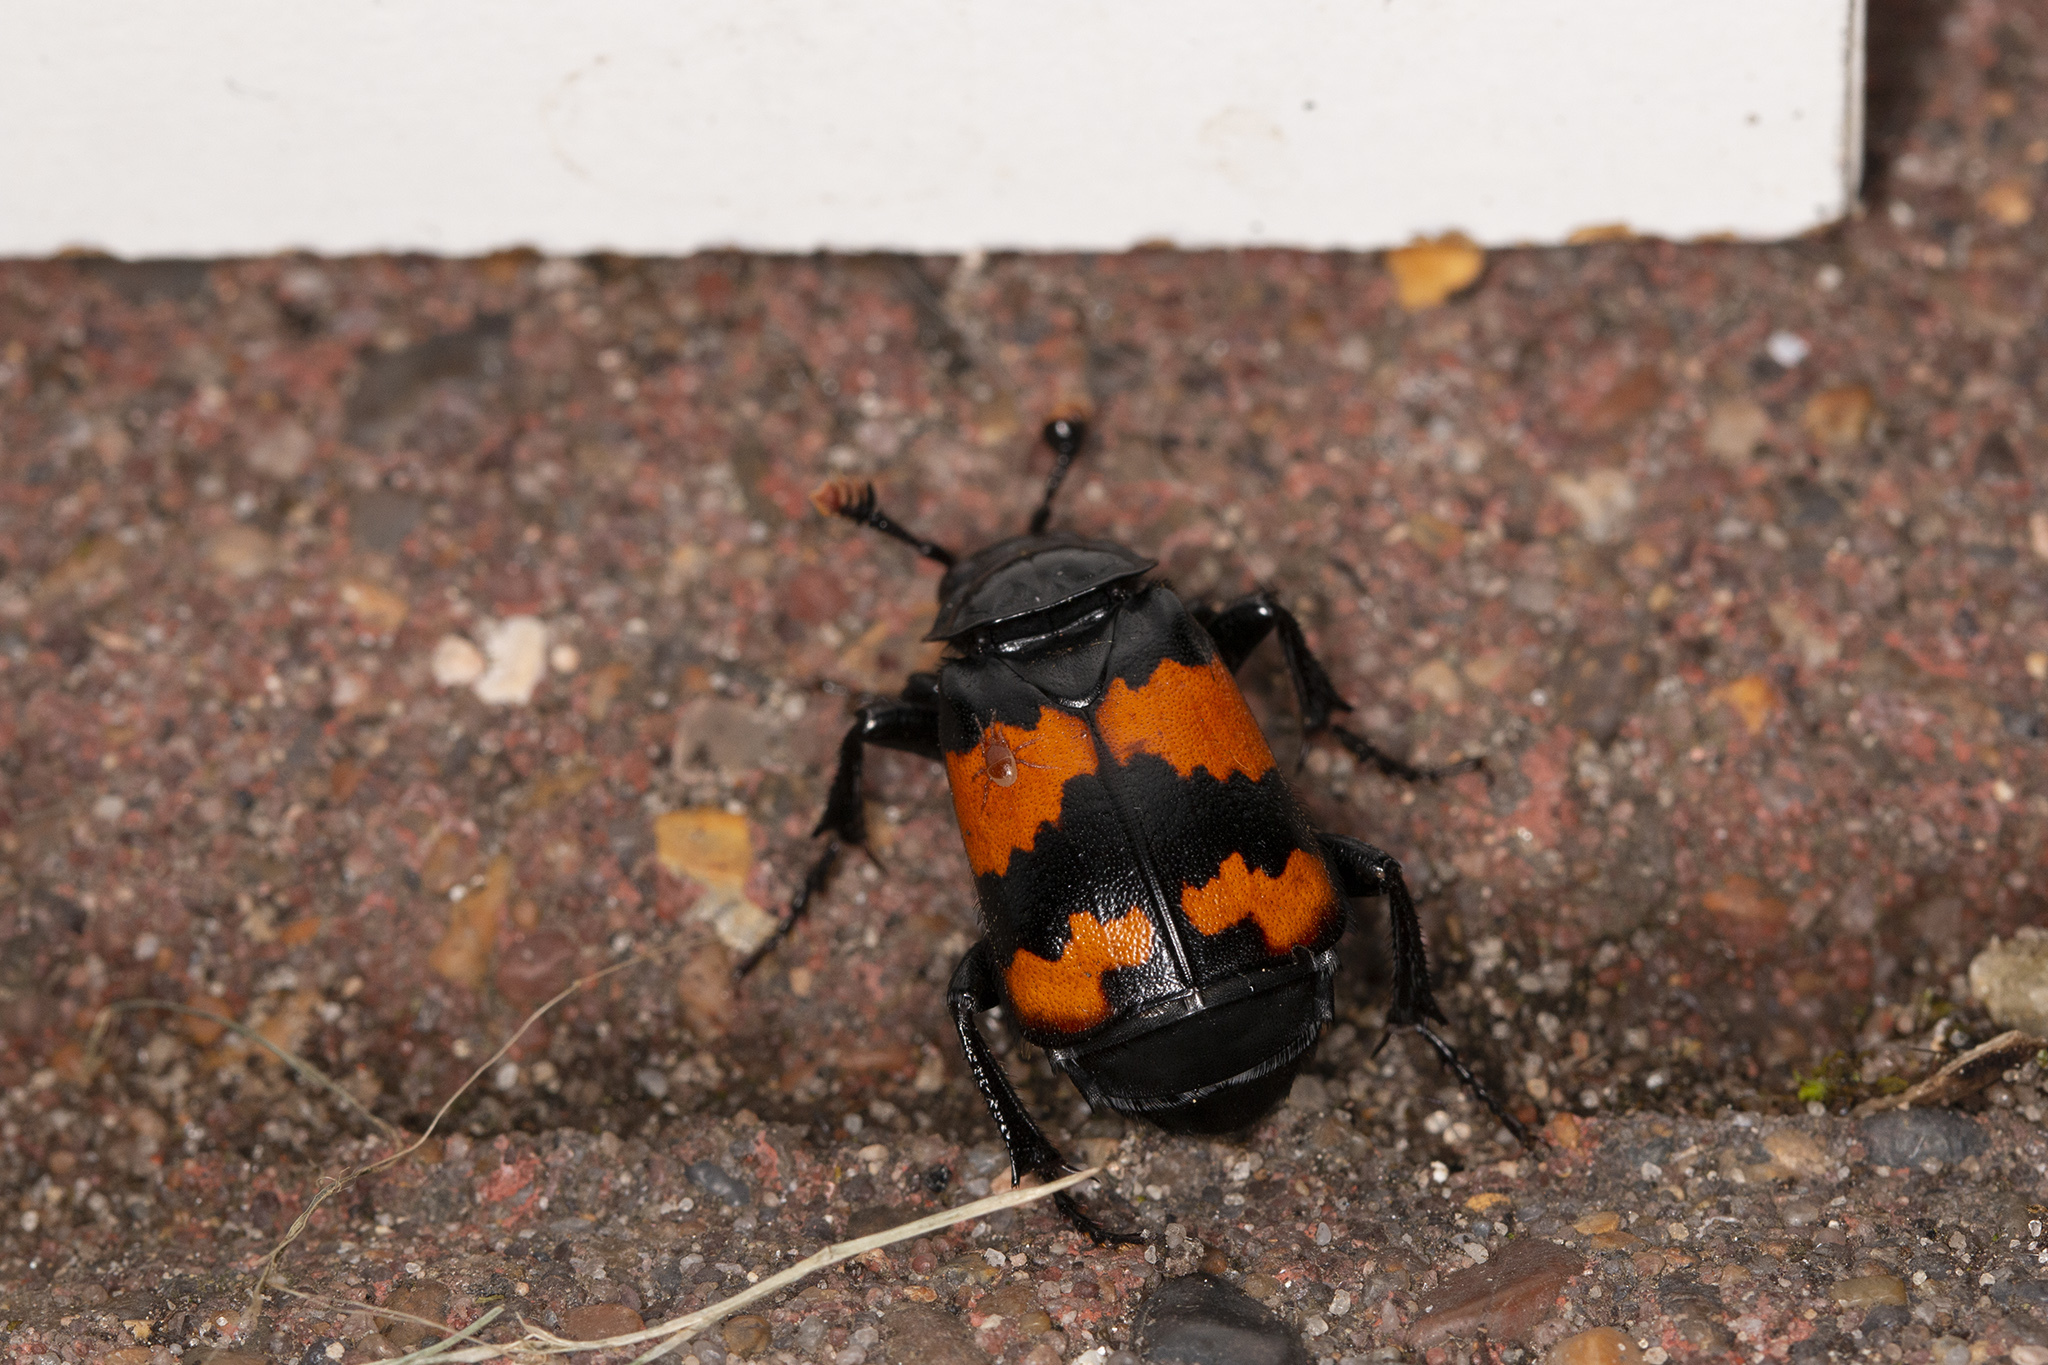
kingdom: Animalia
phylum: Arthropoda
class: Insecta
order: Coleoptera
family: Staphylinidae
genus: Nicrophorus
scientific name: Nicrophorus investigator
